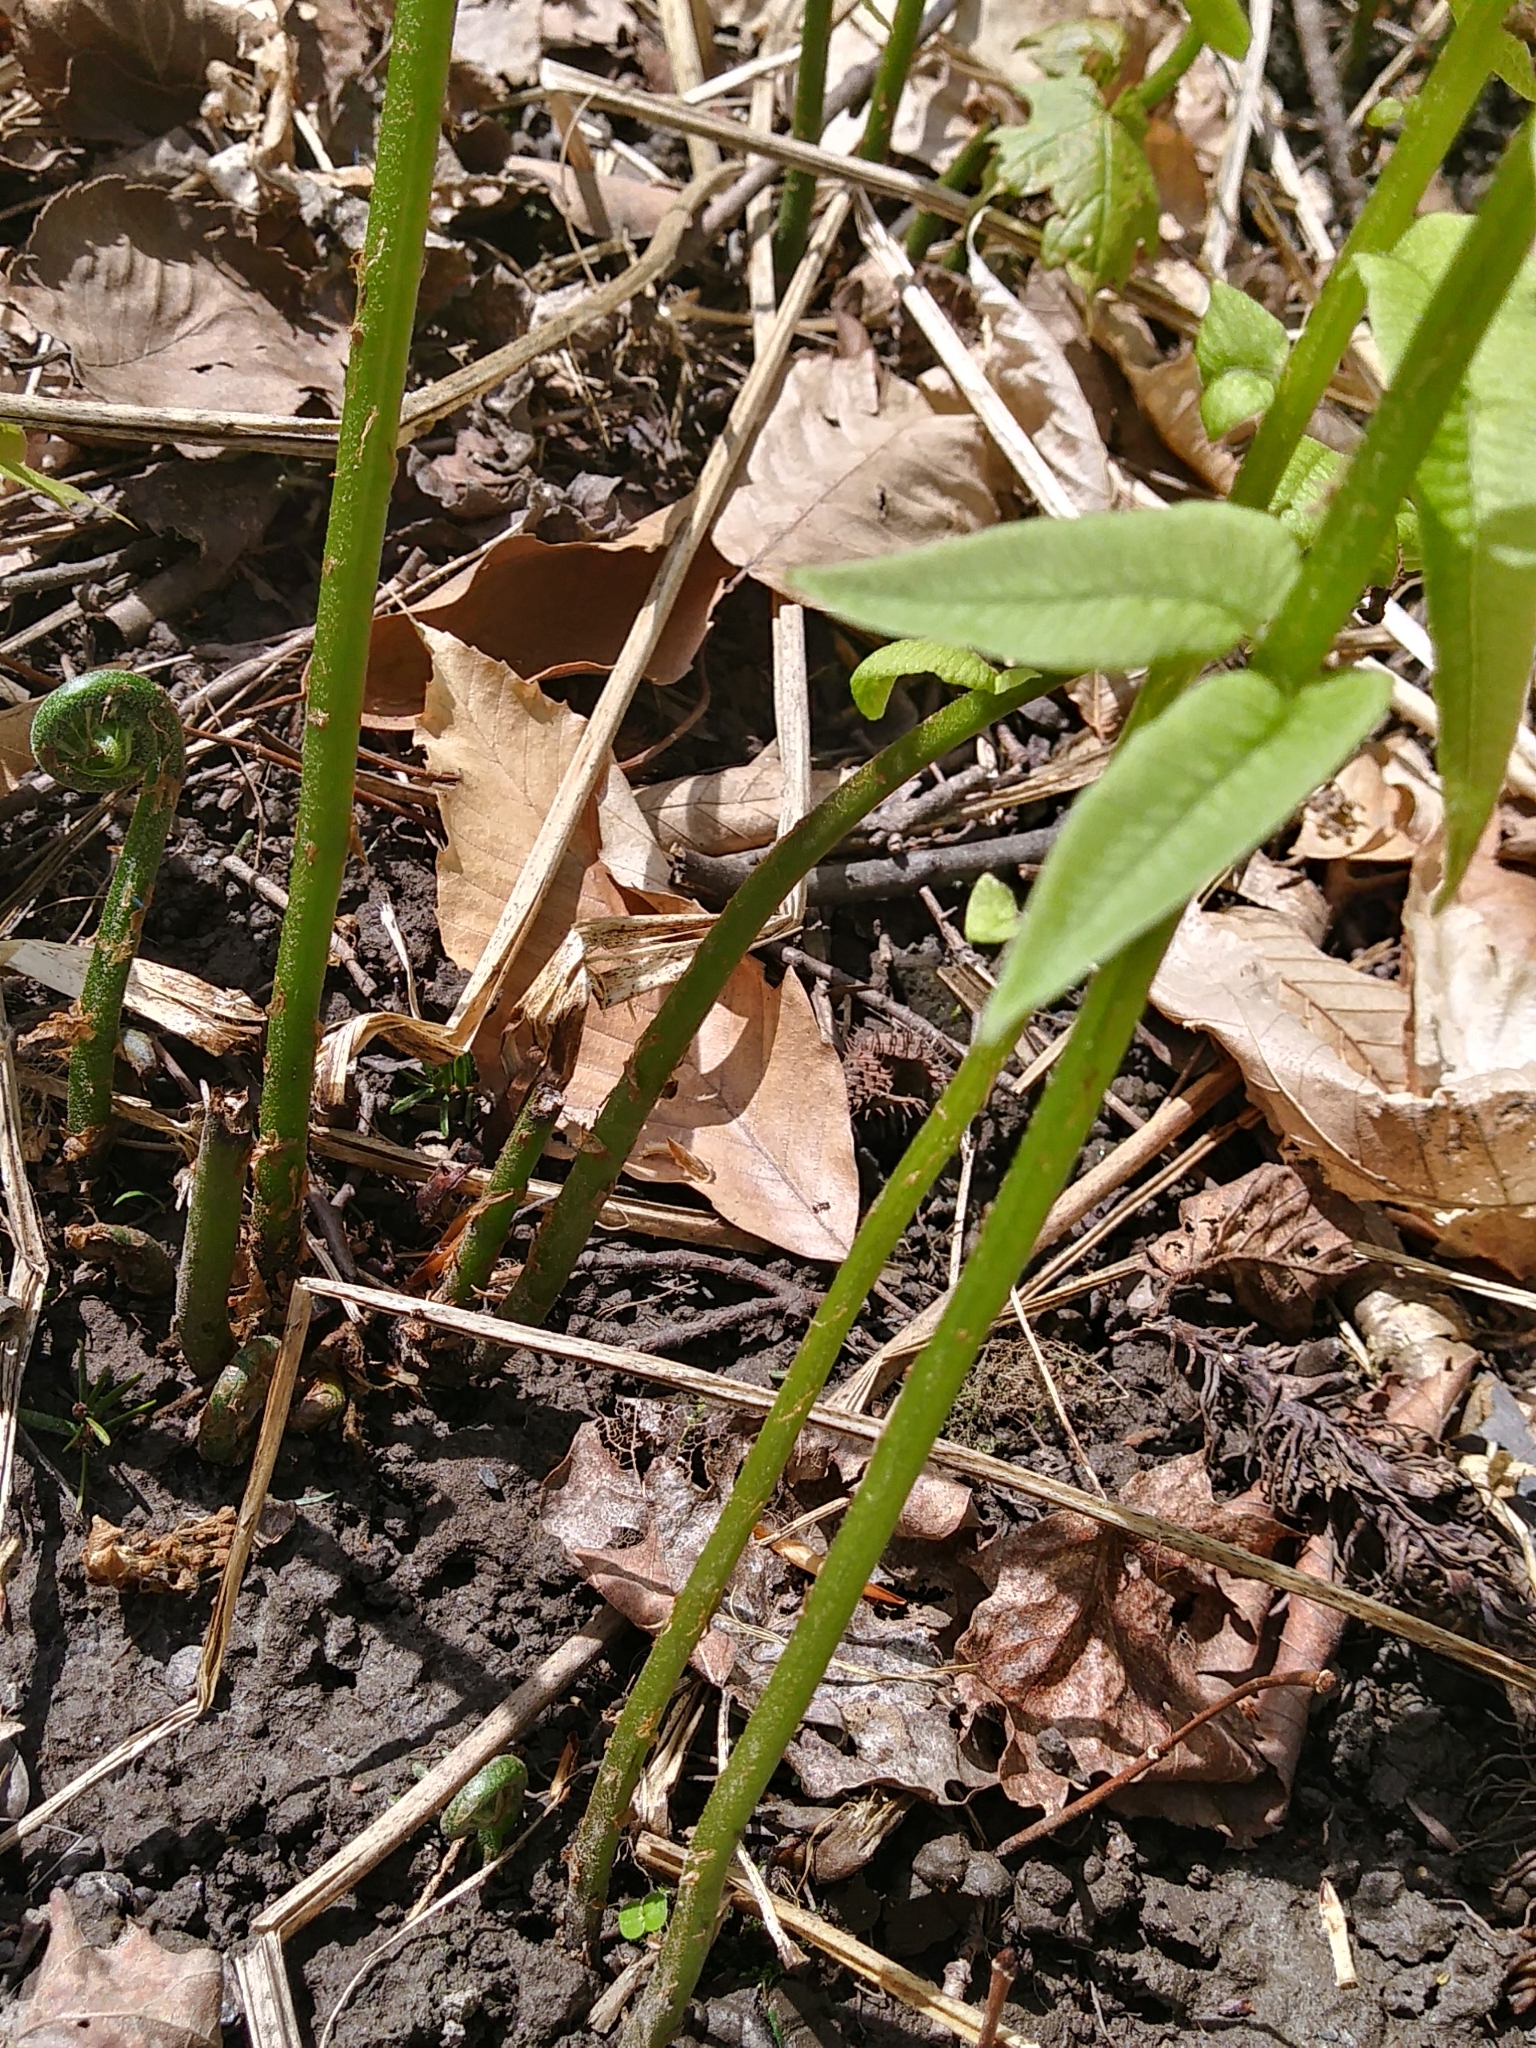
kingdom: Plantae
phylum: Tracheophyta
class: Polypodiopsida
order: Polypodiales
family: Diplaziopsidaceae
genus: Homalosorus
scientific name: Homalosorus pycnocarpos
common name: Glade fern
